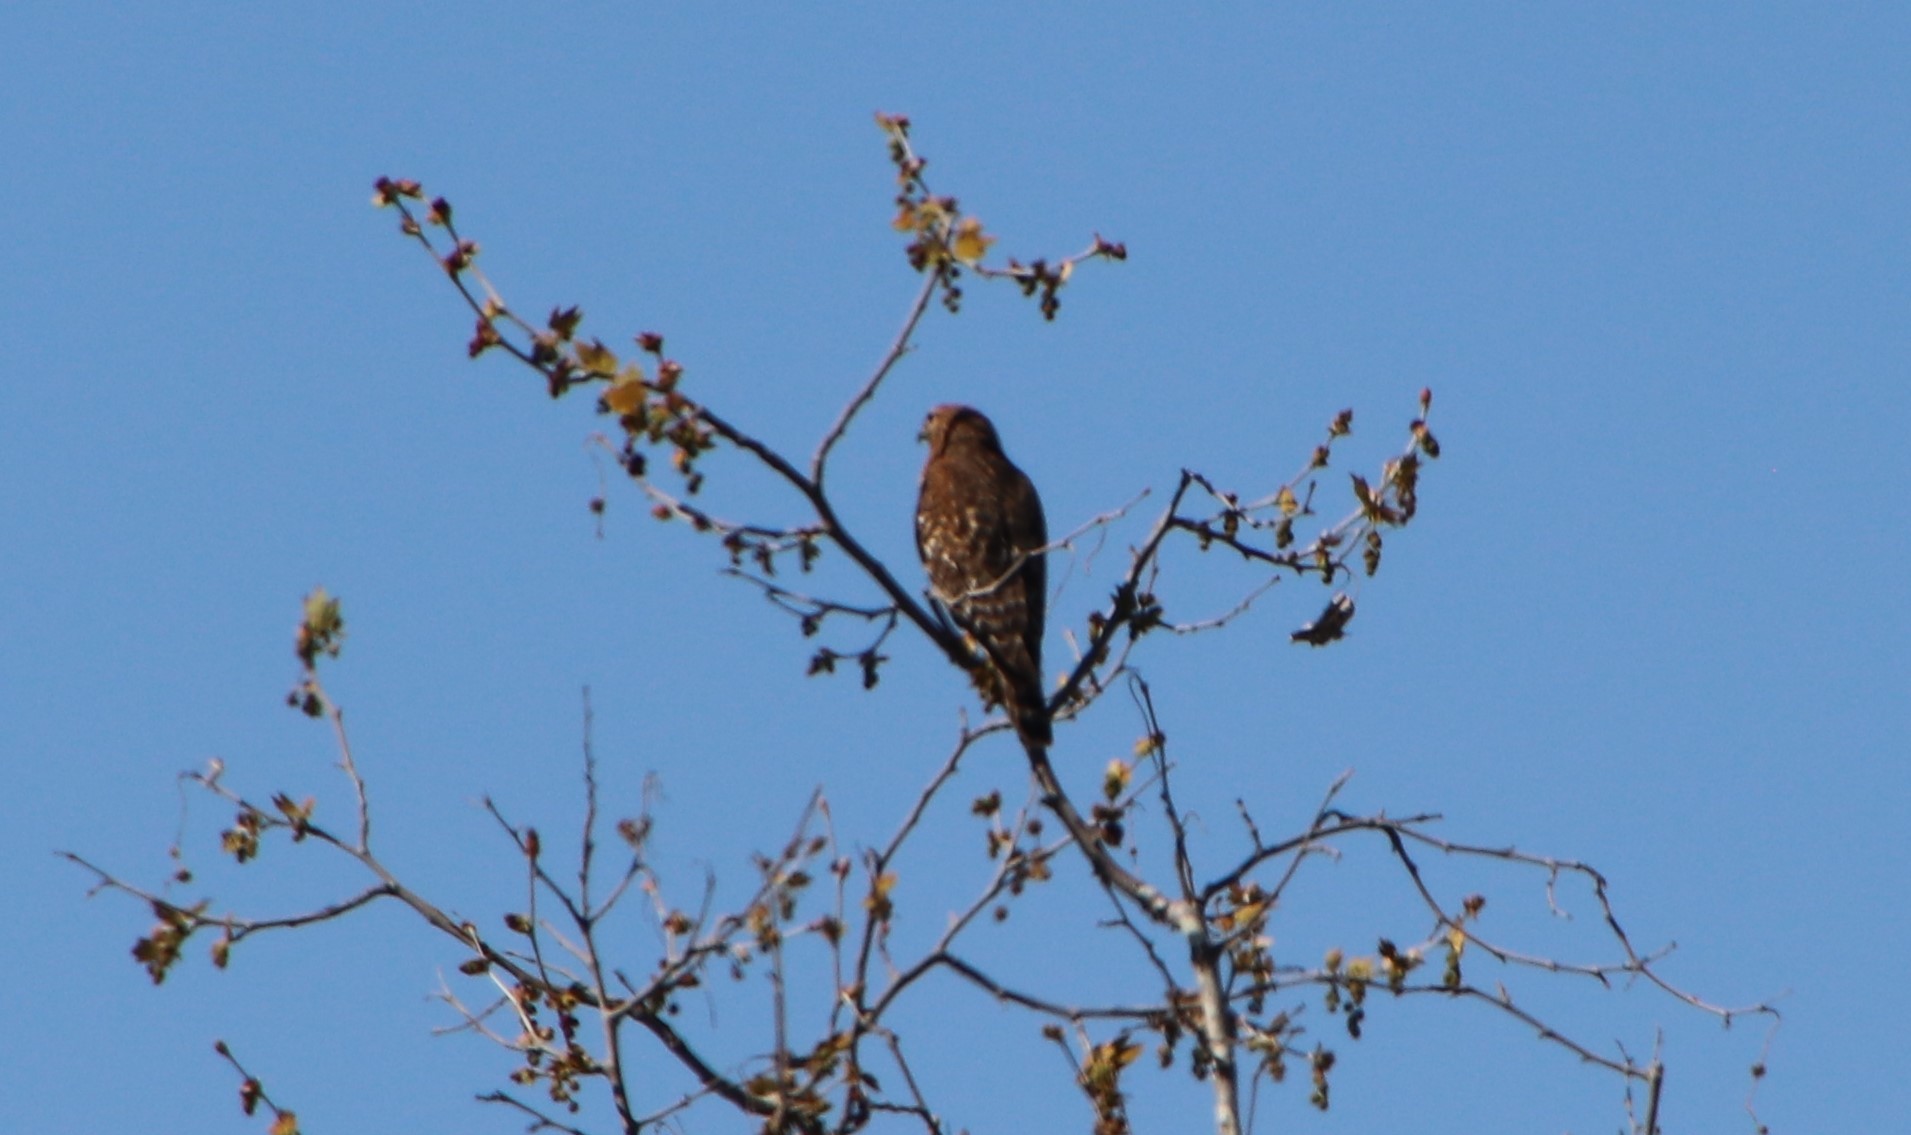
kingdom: Animalia
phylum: Chordata
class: Aves
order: Accipitriformes
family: Accipitridae
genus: Buteo
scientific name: Buteo lineatus
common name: Red-shouldered hawk
